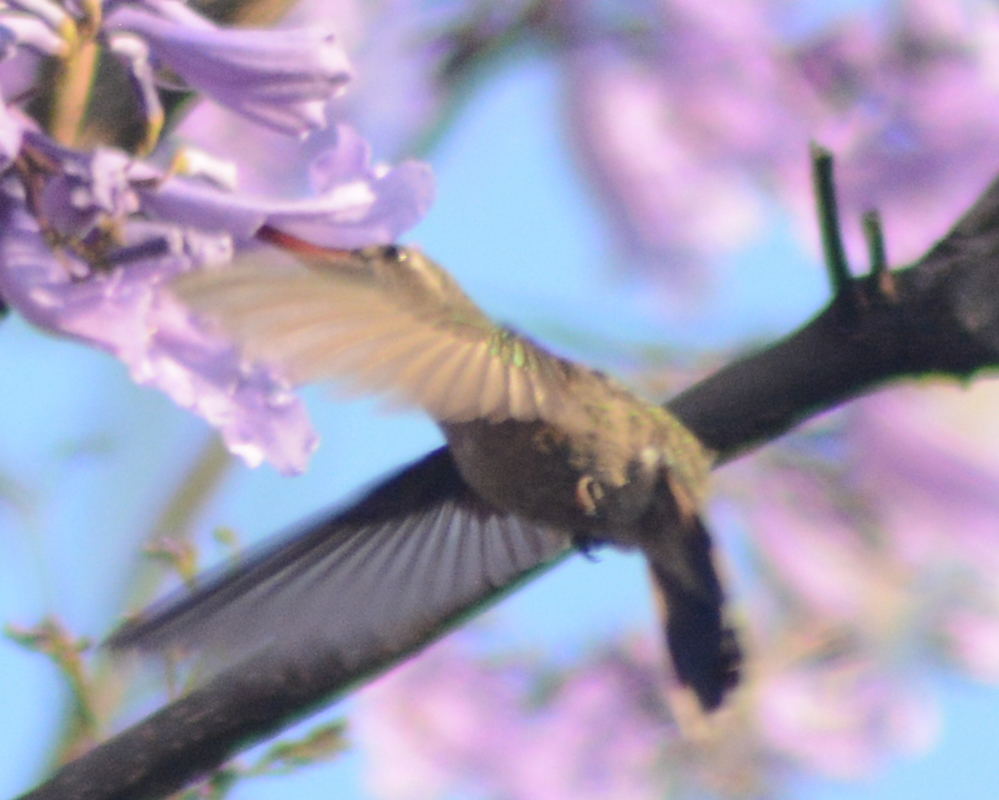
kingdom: Animalia
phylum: Chordata
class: Aves
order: Apodiformes
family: Trochilidae
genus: Cynanthus
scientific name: Cynanthus latirostris
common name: Broad-billed hummingbird
